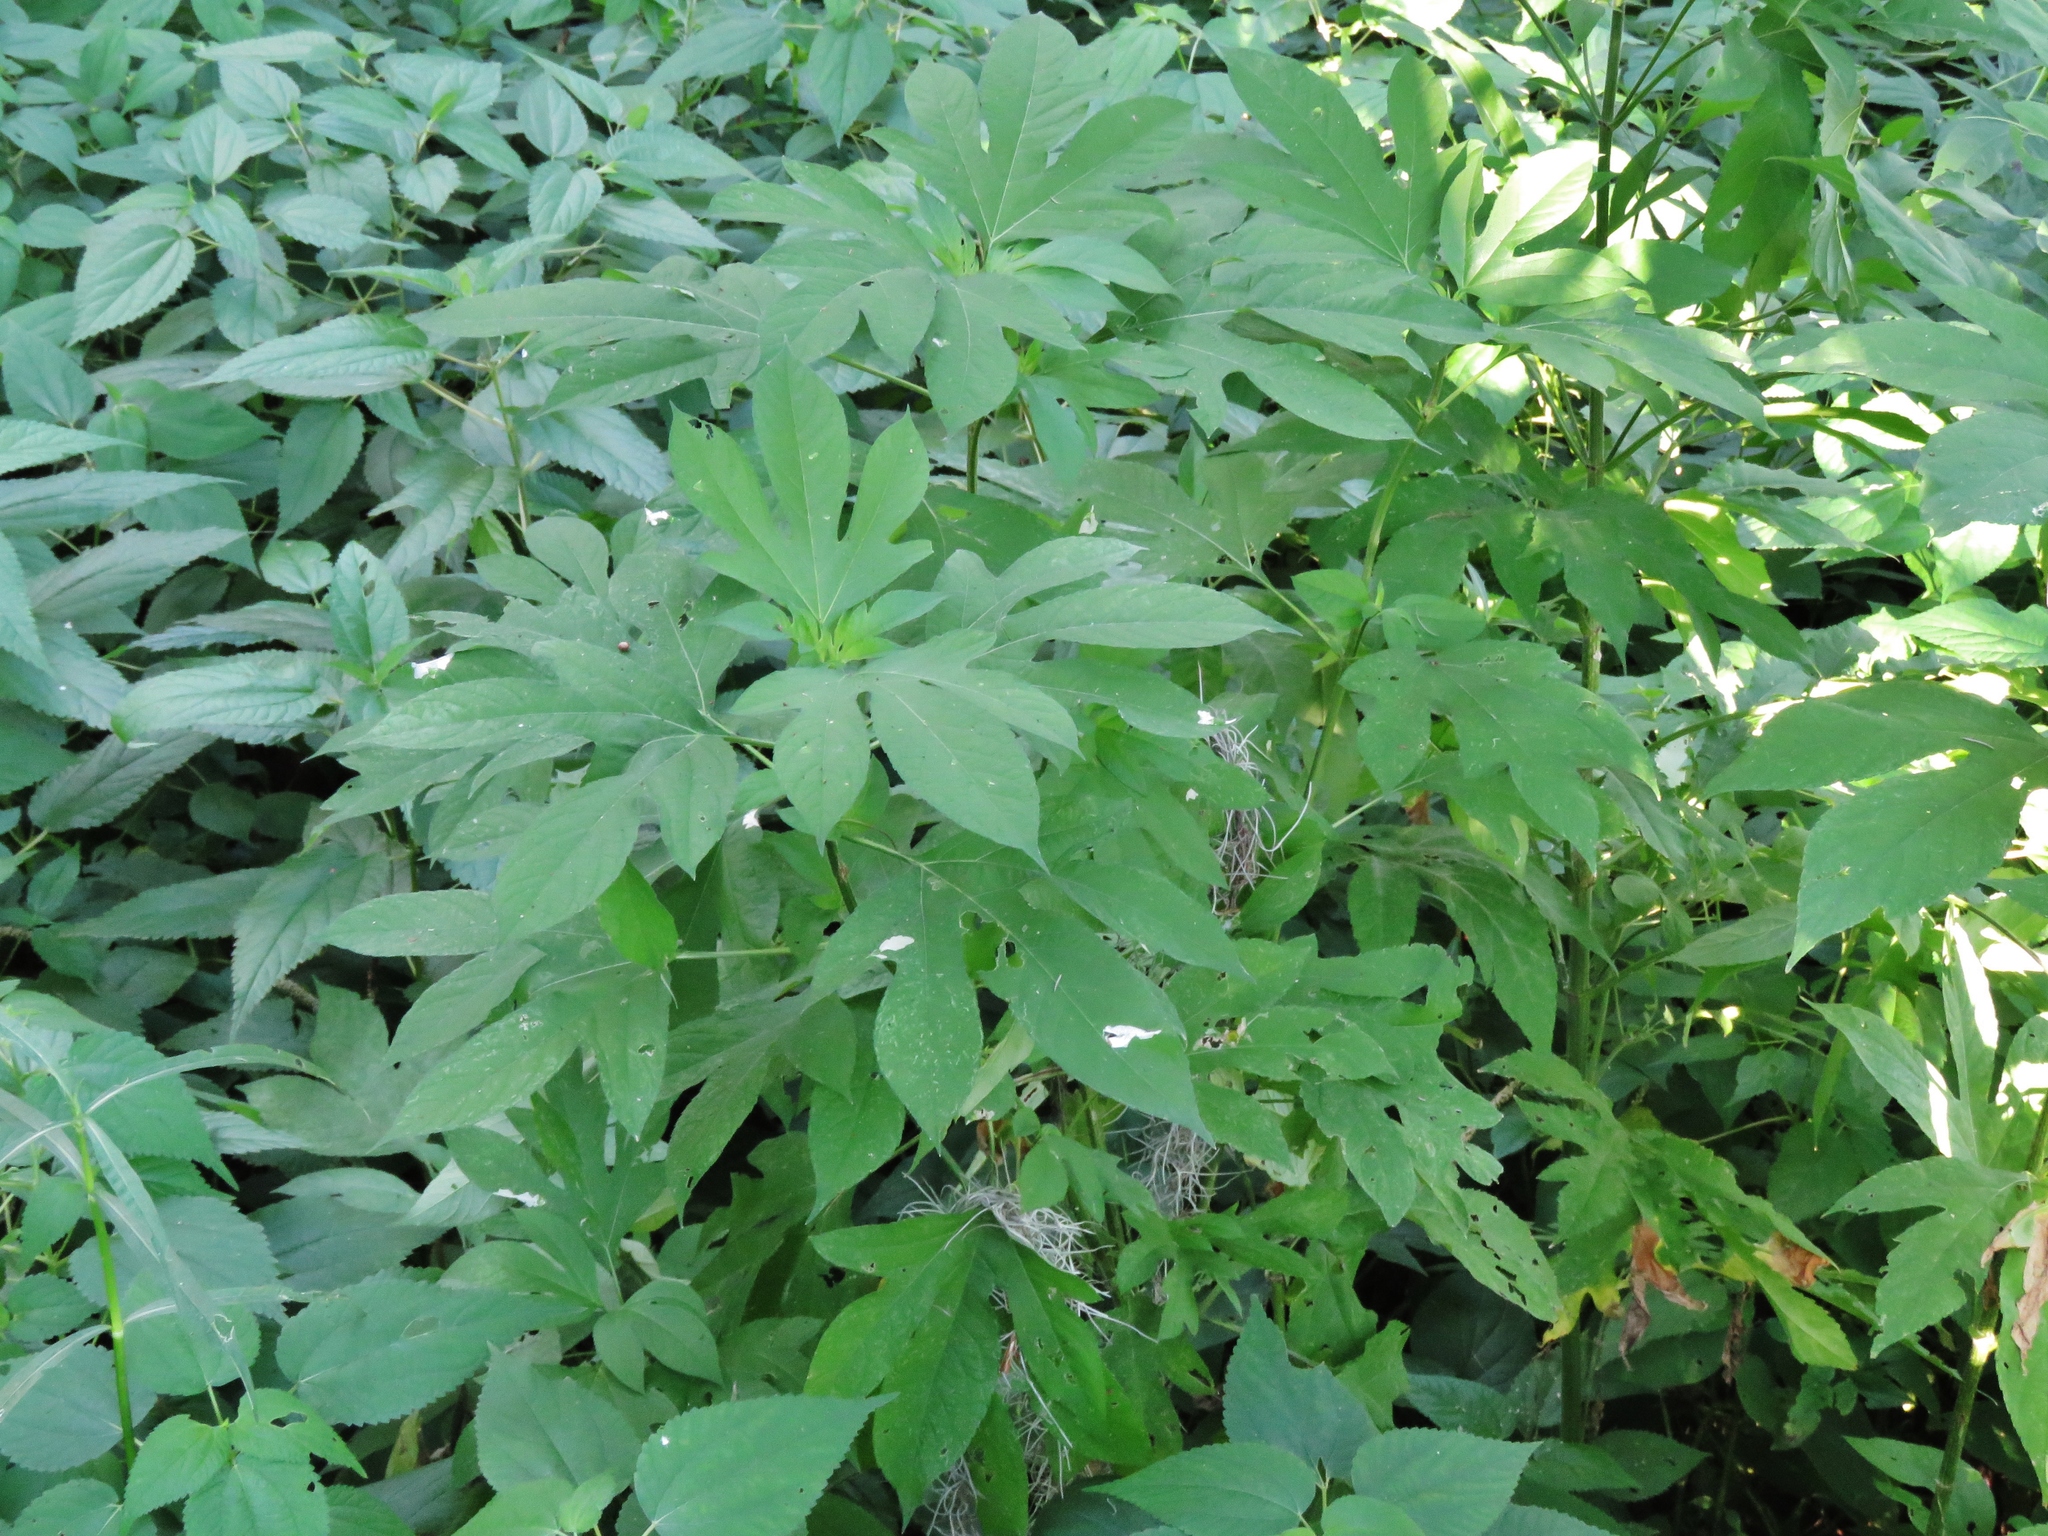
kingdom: Plantae
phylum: Tracheophyta
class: Magnoliopsida
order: Asterales
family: Asteraceae
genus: Ambrosia
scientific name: Ambrosia trifida
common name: Giant ragweed
